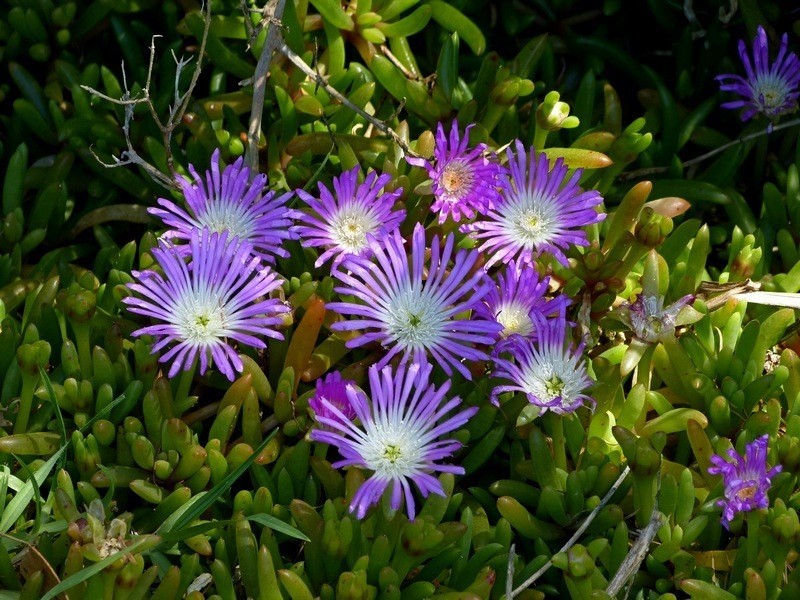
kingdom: Plantae
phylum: Tracheophyta
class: Magnoliopsida
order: Caryophyllales
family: Aizoaceae
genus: Disphyma
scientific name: Disphyma clavellatum
